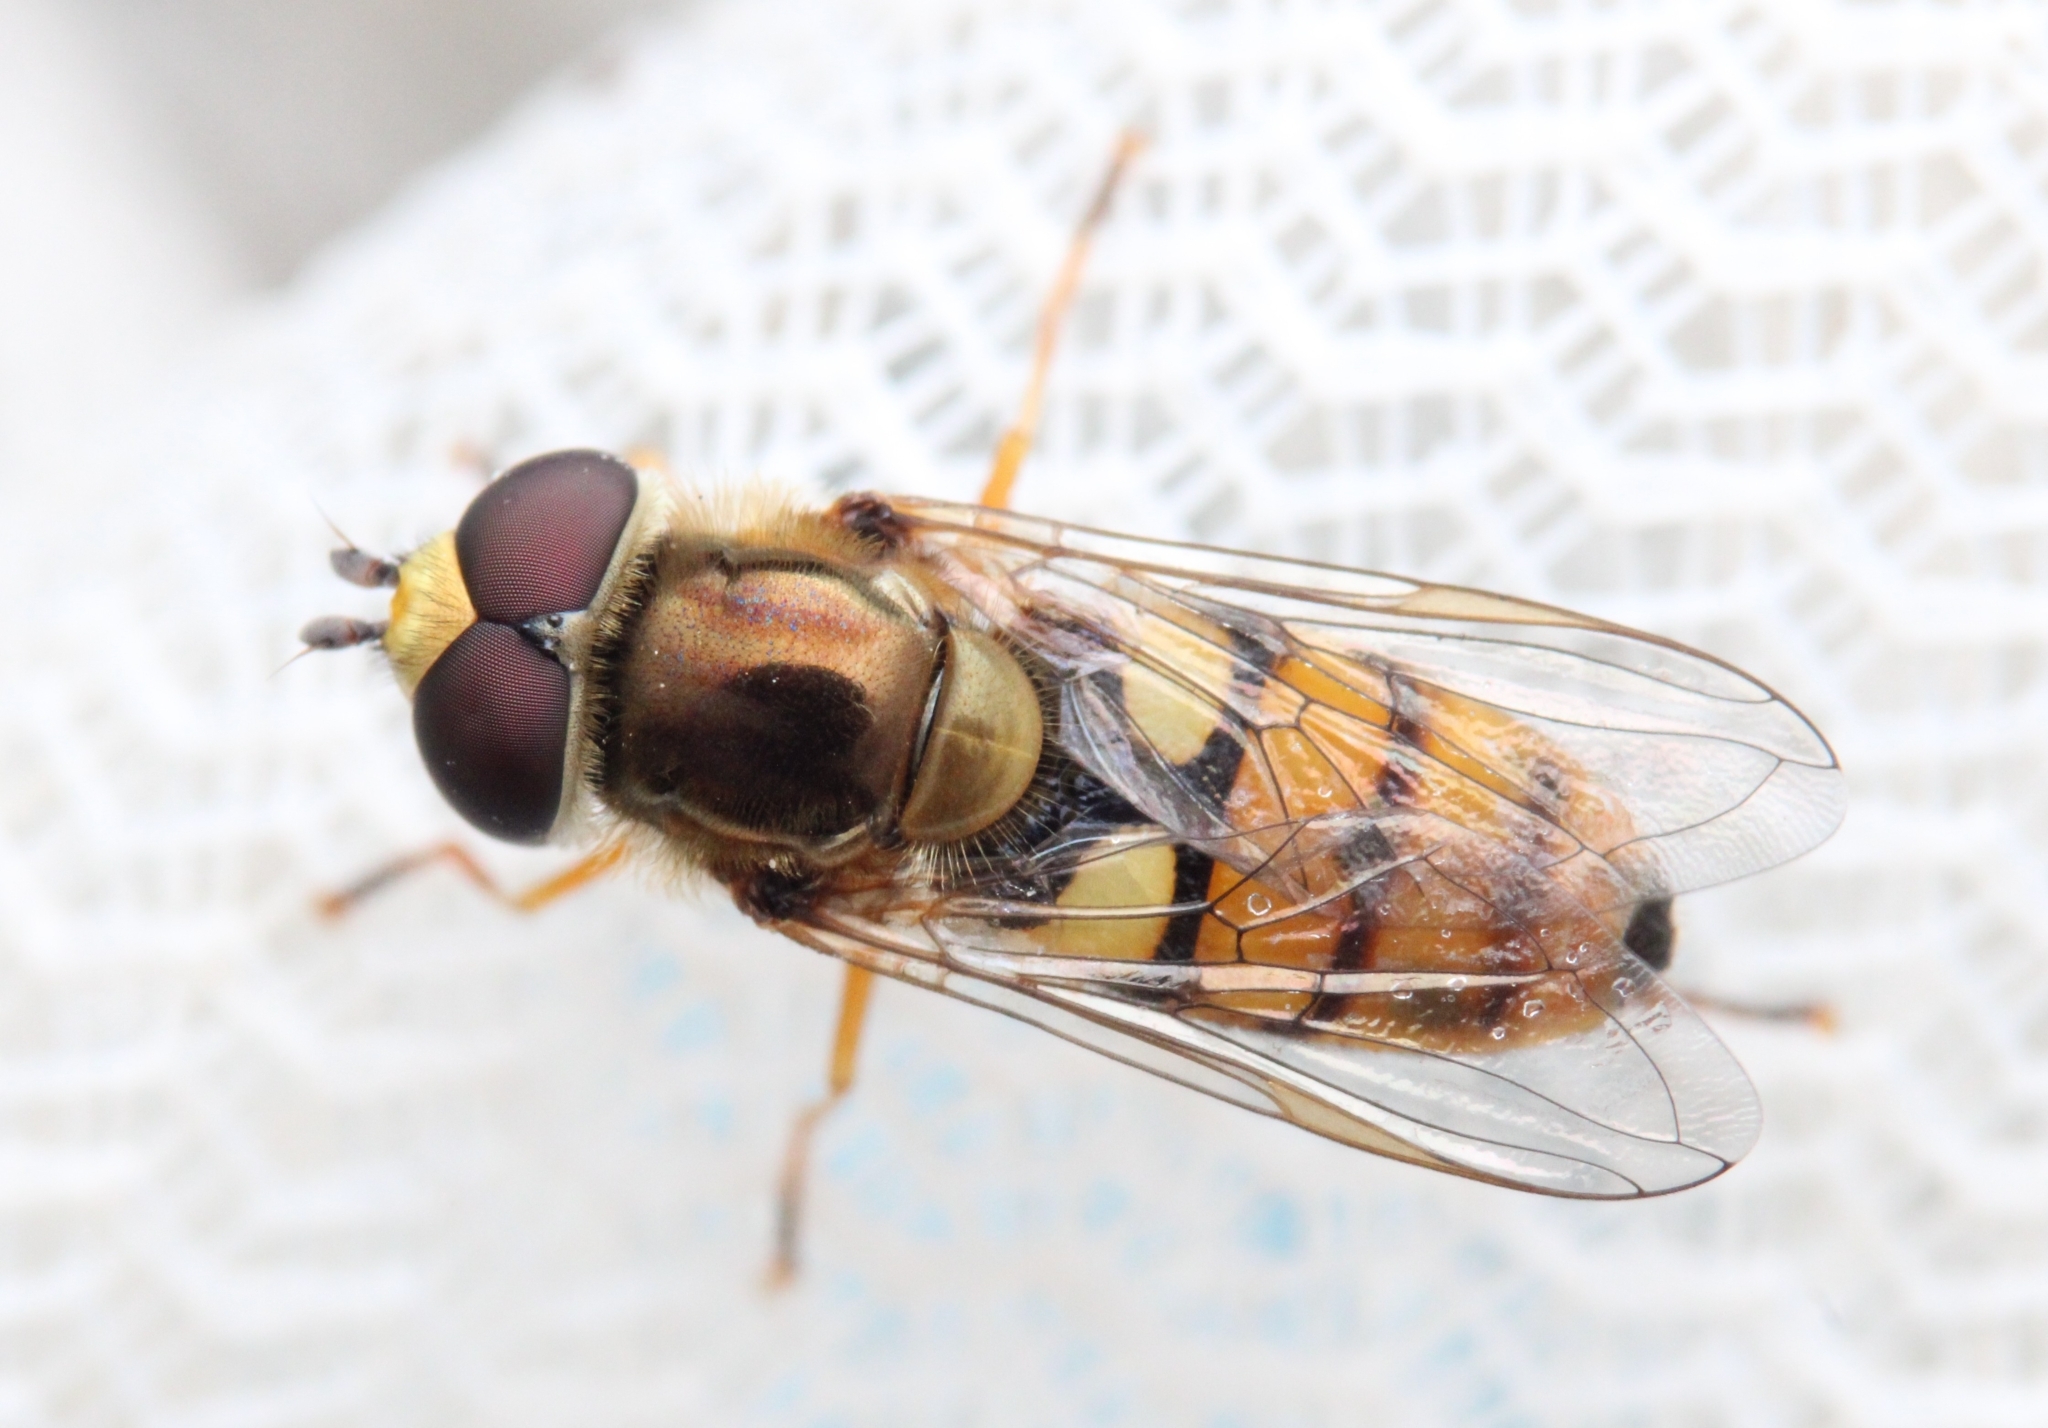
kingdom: Animalia
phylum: Arthropoda
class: Insecta
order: Diptera
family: Syrphidae
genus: Eupeodes
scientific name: Eupeodes corollae
